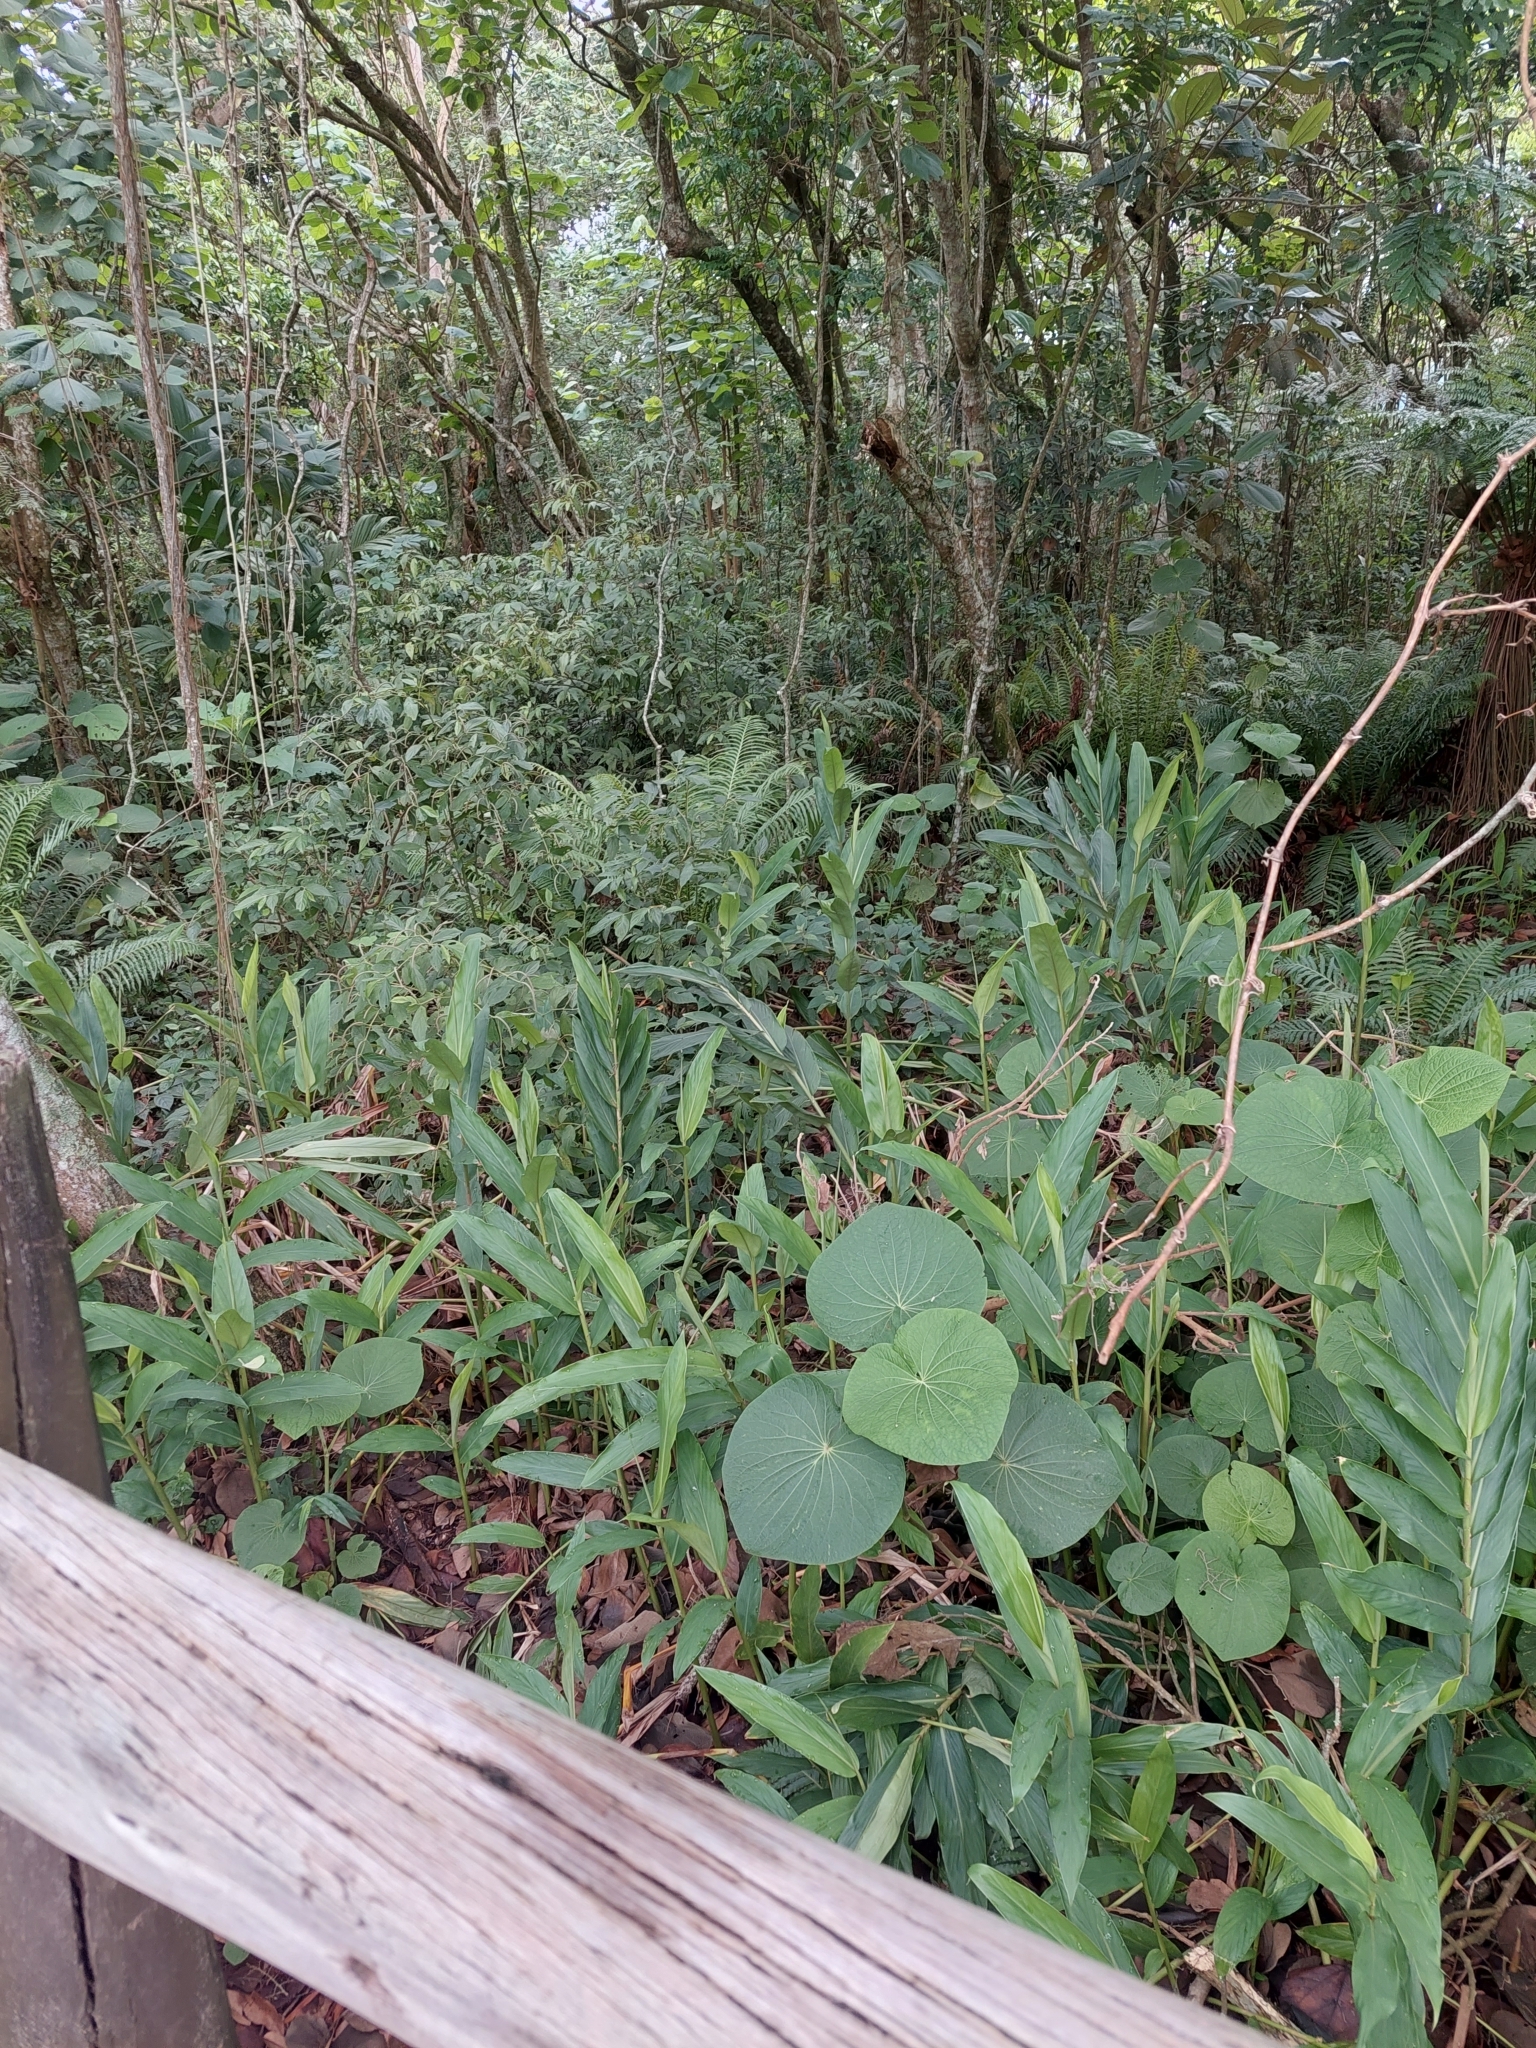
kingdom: Plantae
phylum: Tracheophyta
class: Liliopsida
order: Zingiberales
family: Zingiberaceae
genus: Hedychium
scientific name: Hedychium coronarium
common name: White garland-lily
